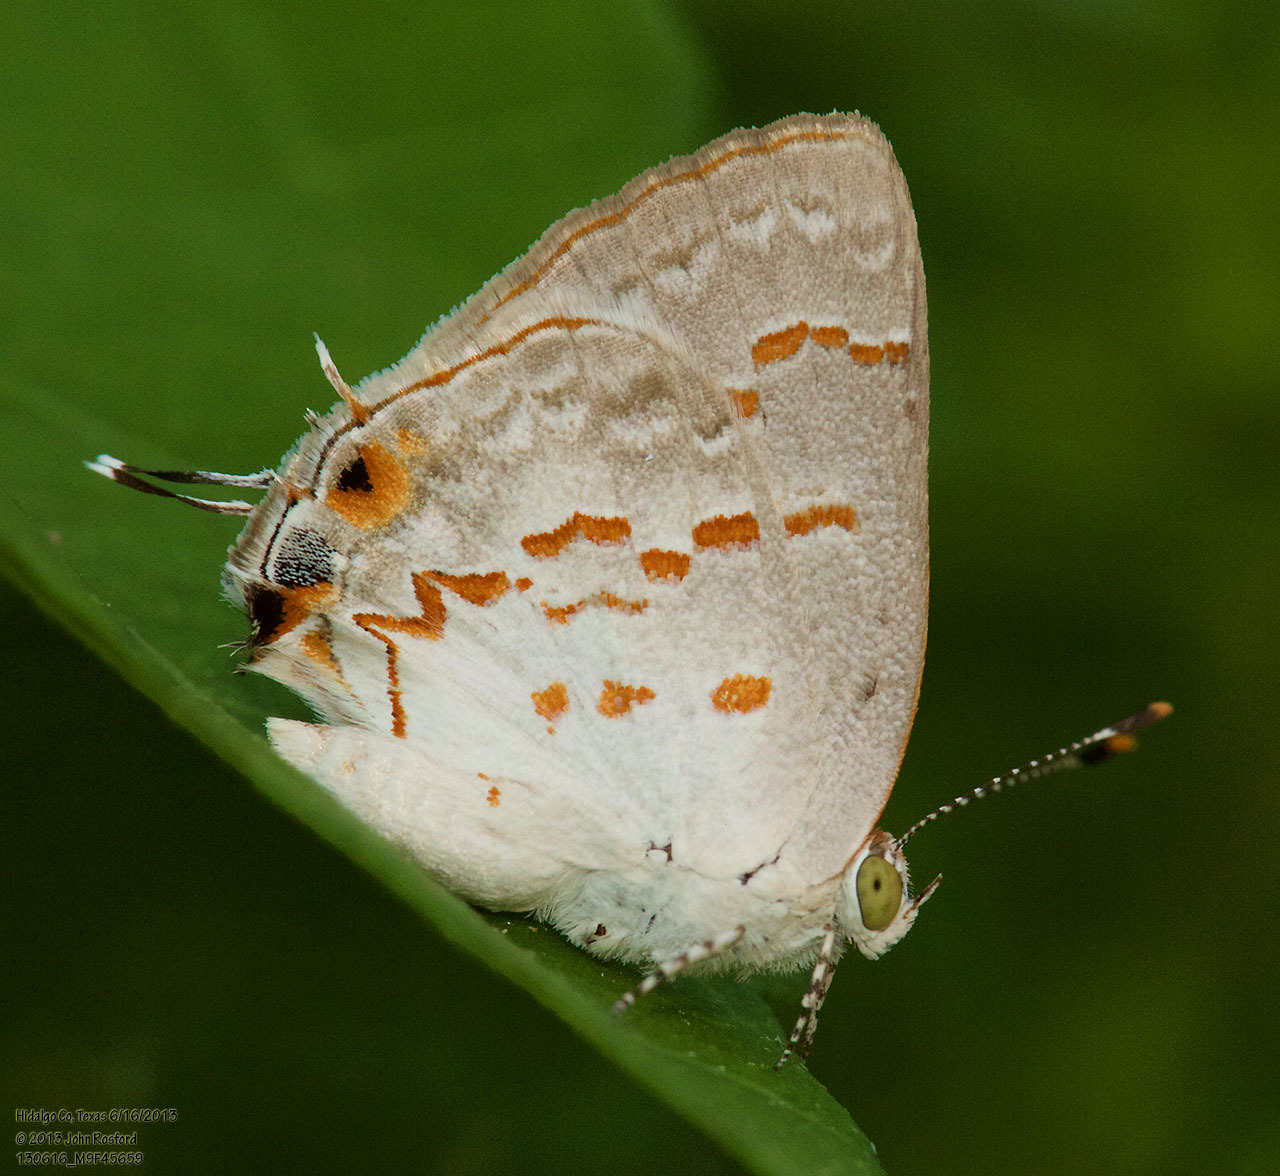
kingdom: Animalia
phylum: Arthropoda
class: Insecta
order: Lepidoptera
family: Lycaenidae
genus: Ministrymon
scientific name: Ministrymon clytie
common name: Clytie ministreak
